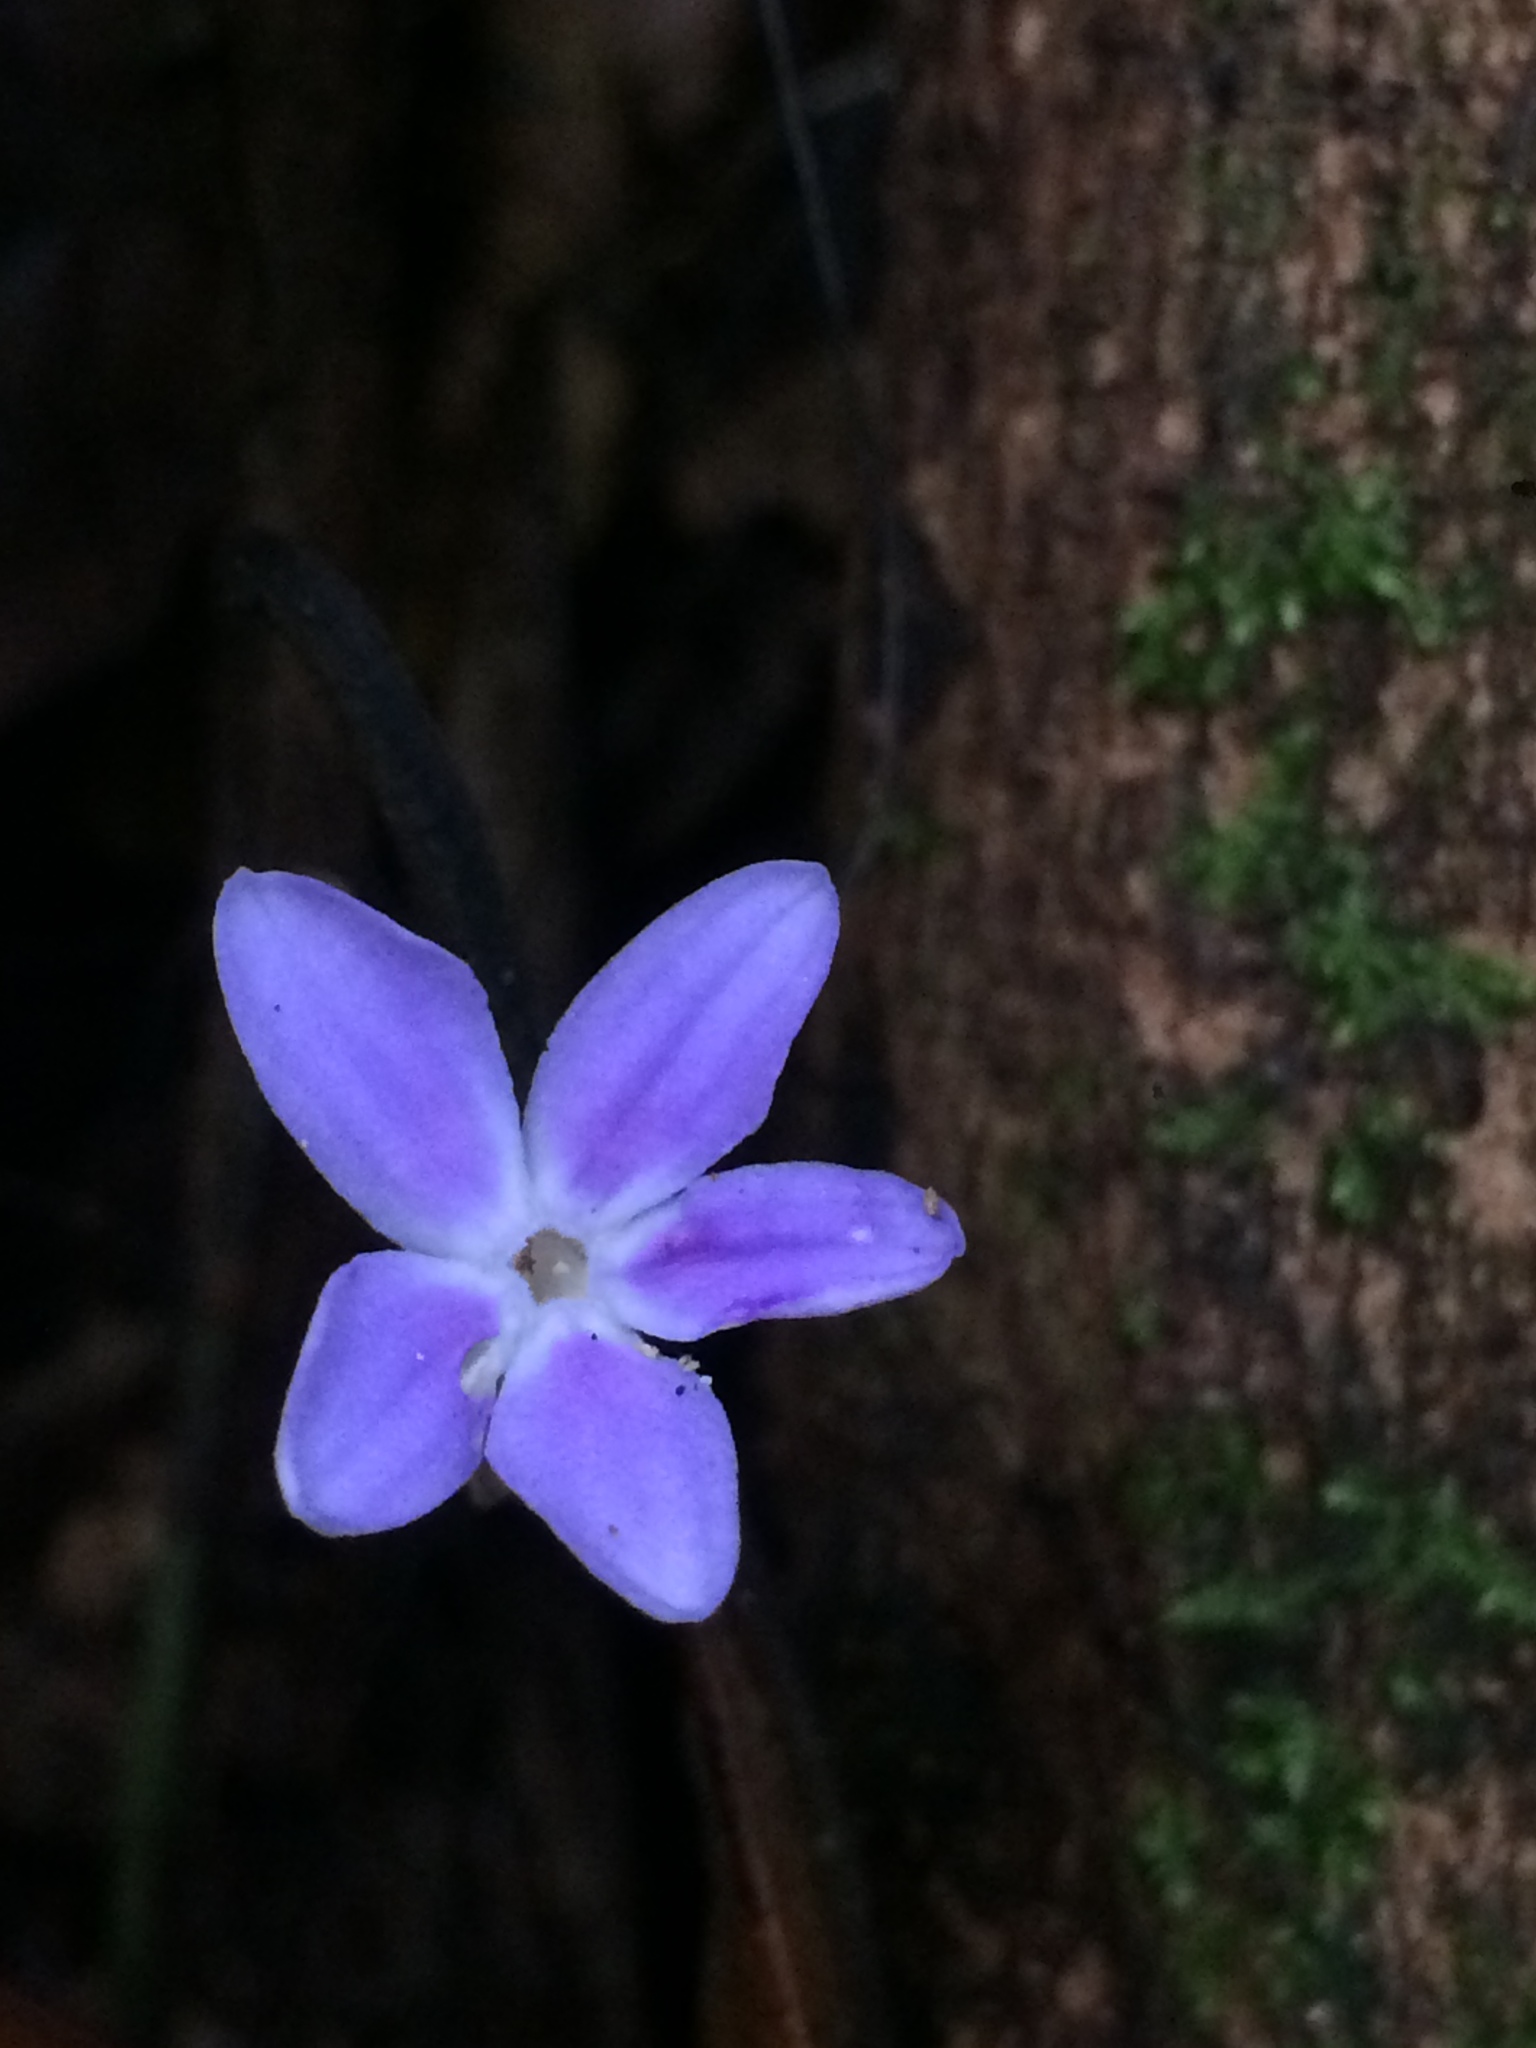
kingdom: Plantae
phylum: Tracheophyta
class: Magnoliopsida
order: Gentianales
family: Gentianaceae
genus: Voyria
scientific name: Voyria obconica
